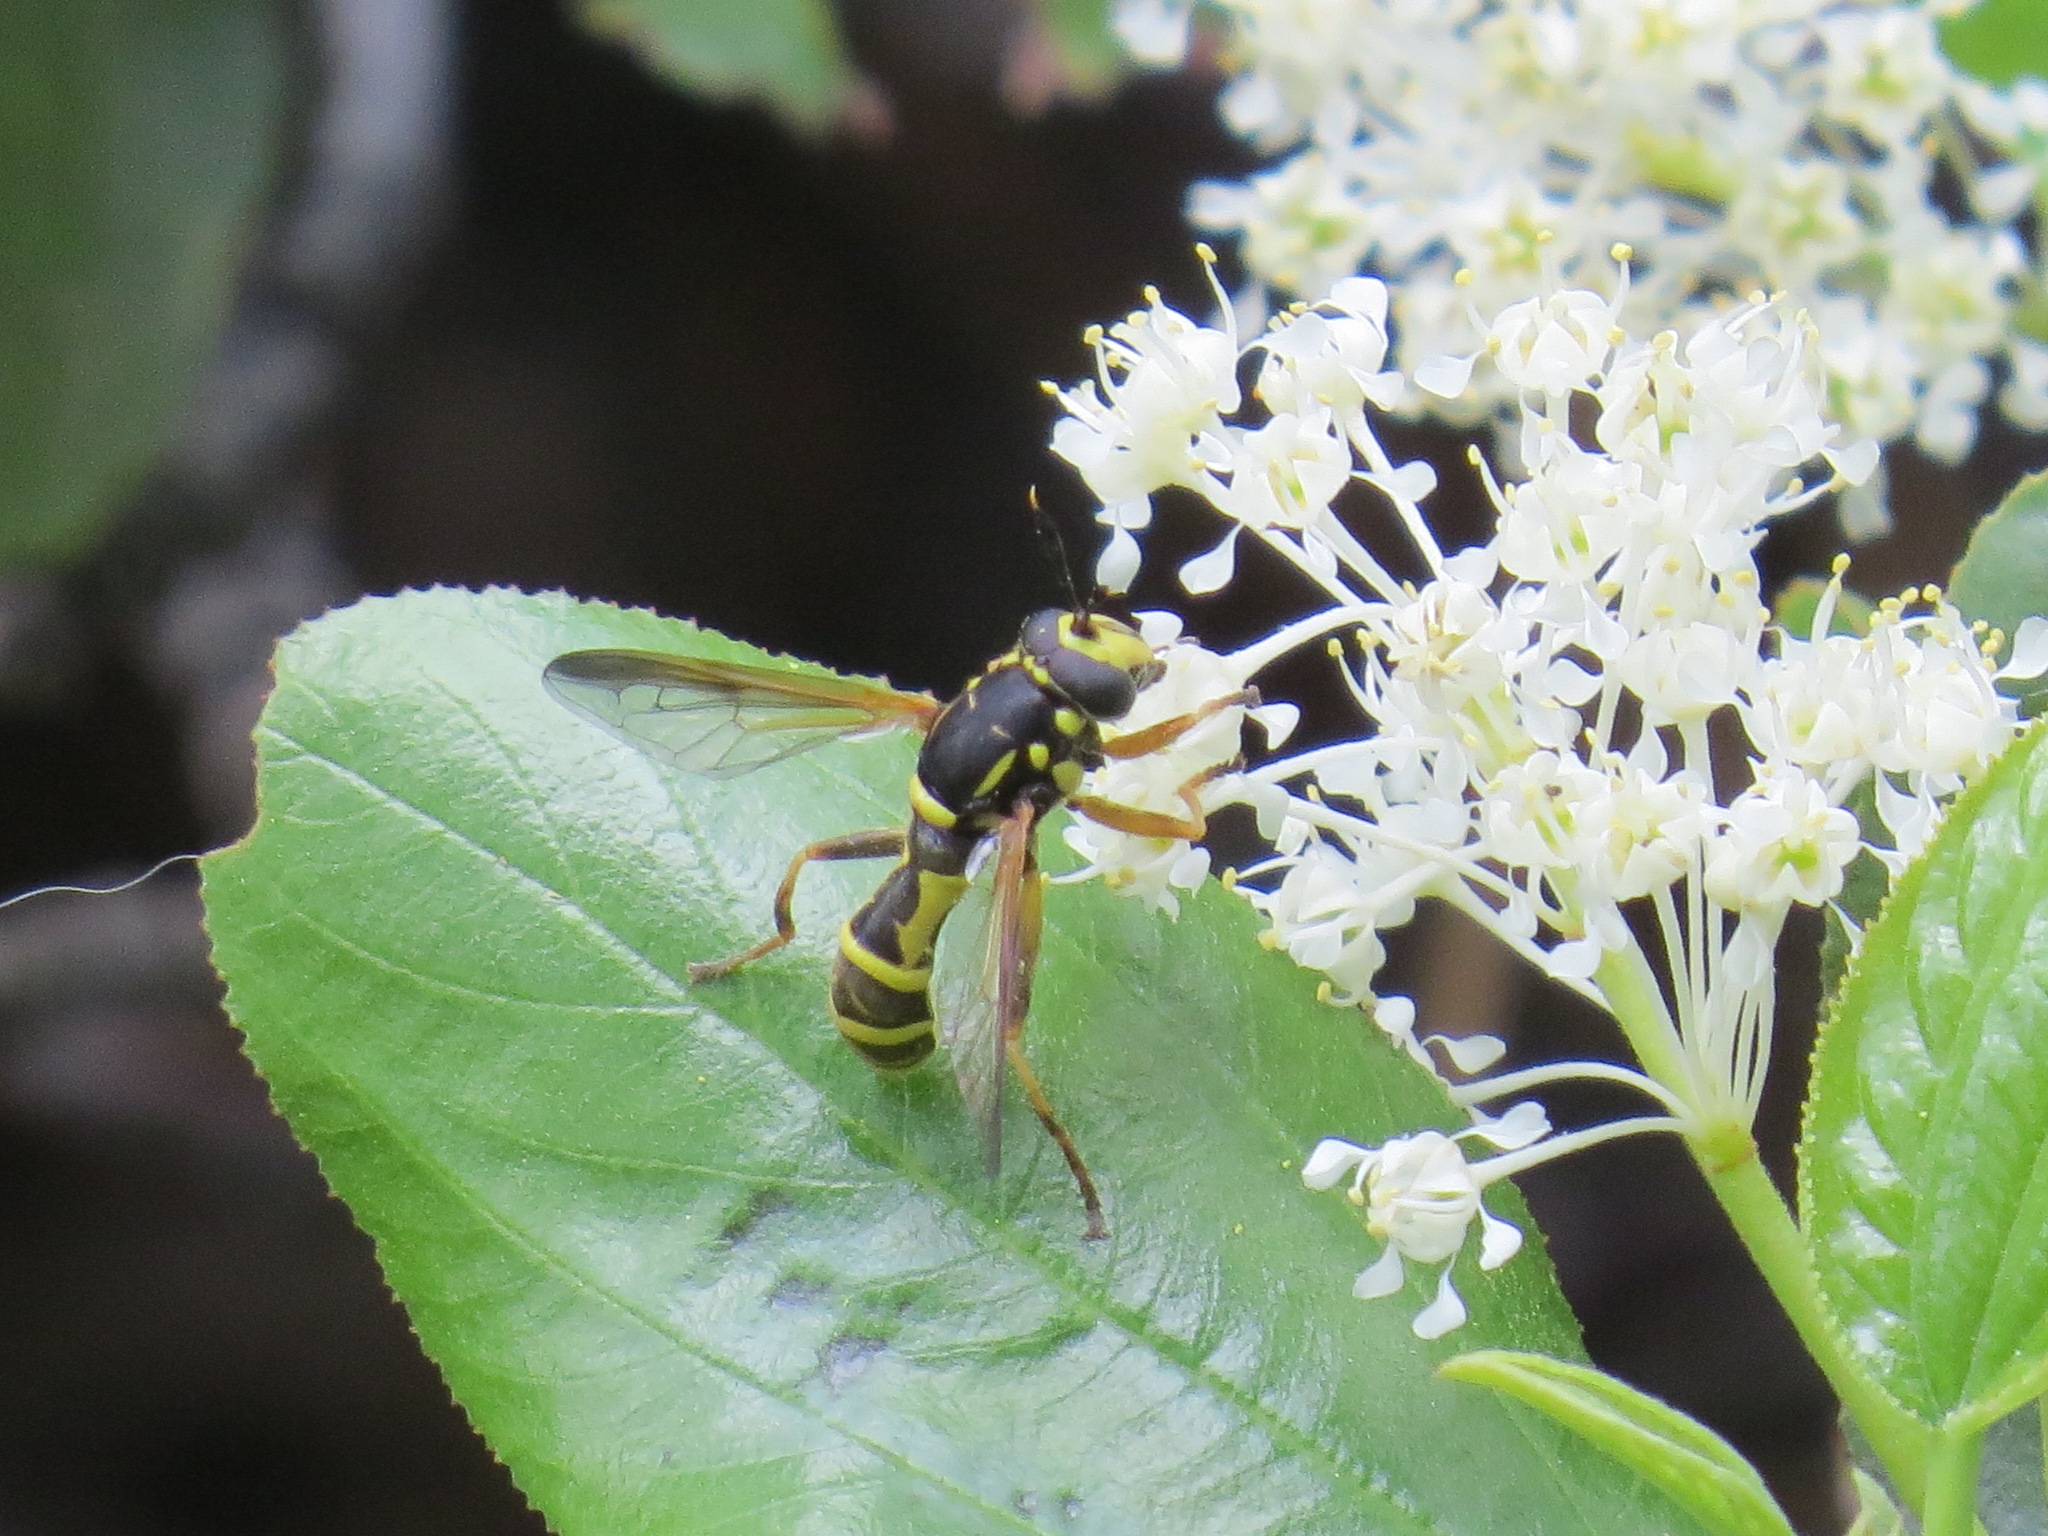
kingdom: Animalia
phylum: Arthropoda
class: Insecta
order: Diptera
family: Syrphidae
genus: Sphiximorpha
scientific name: Sphiximorpha cylindrica
